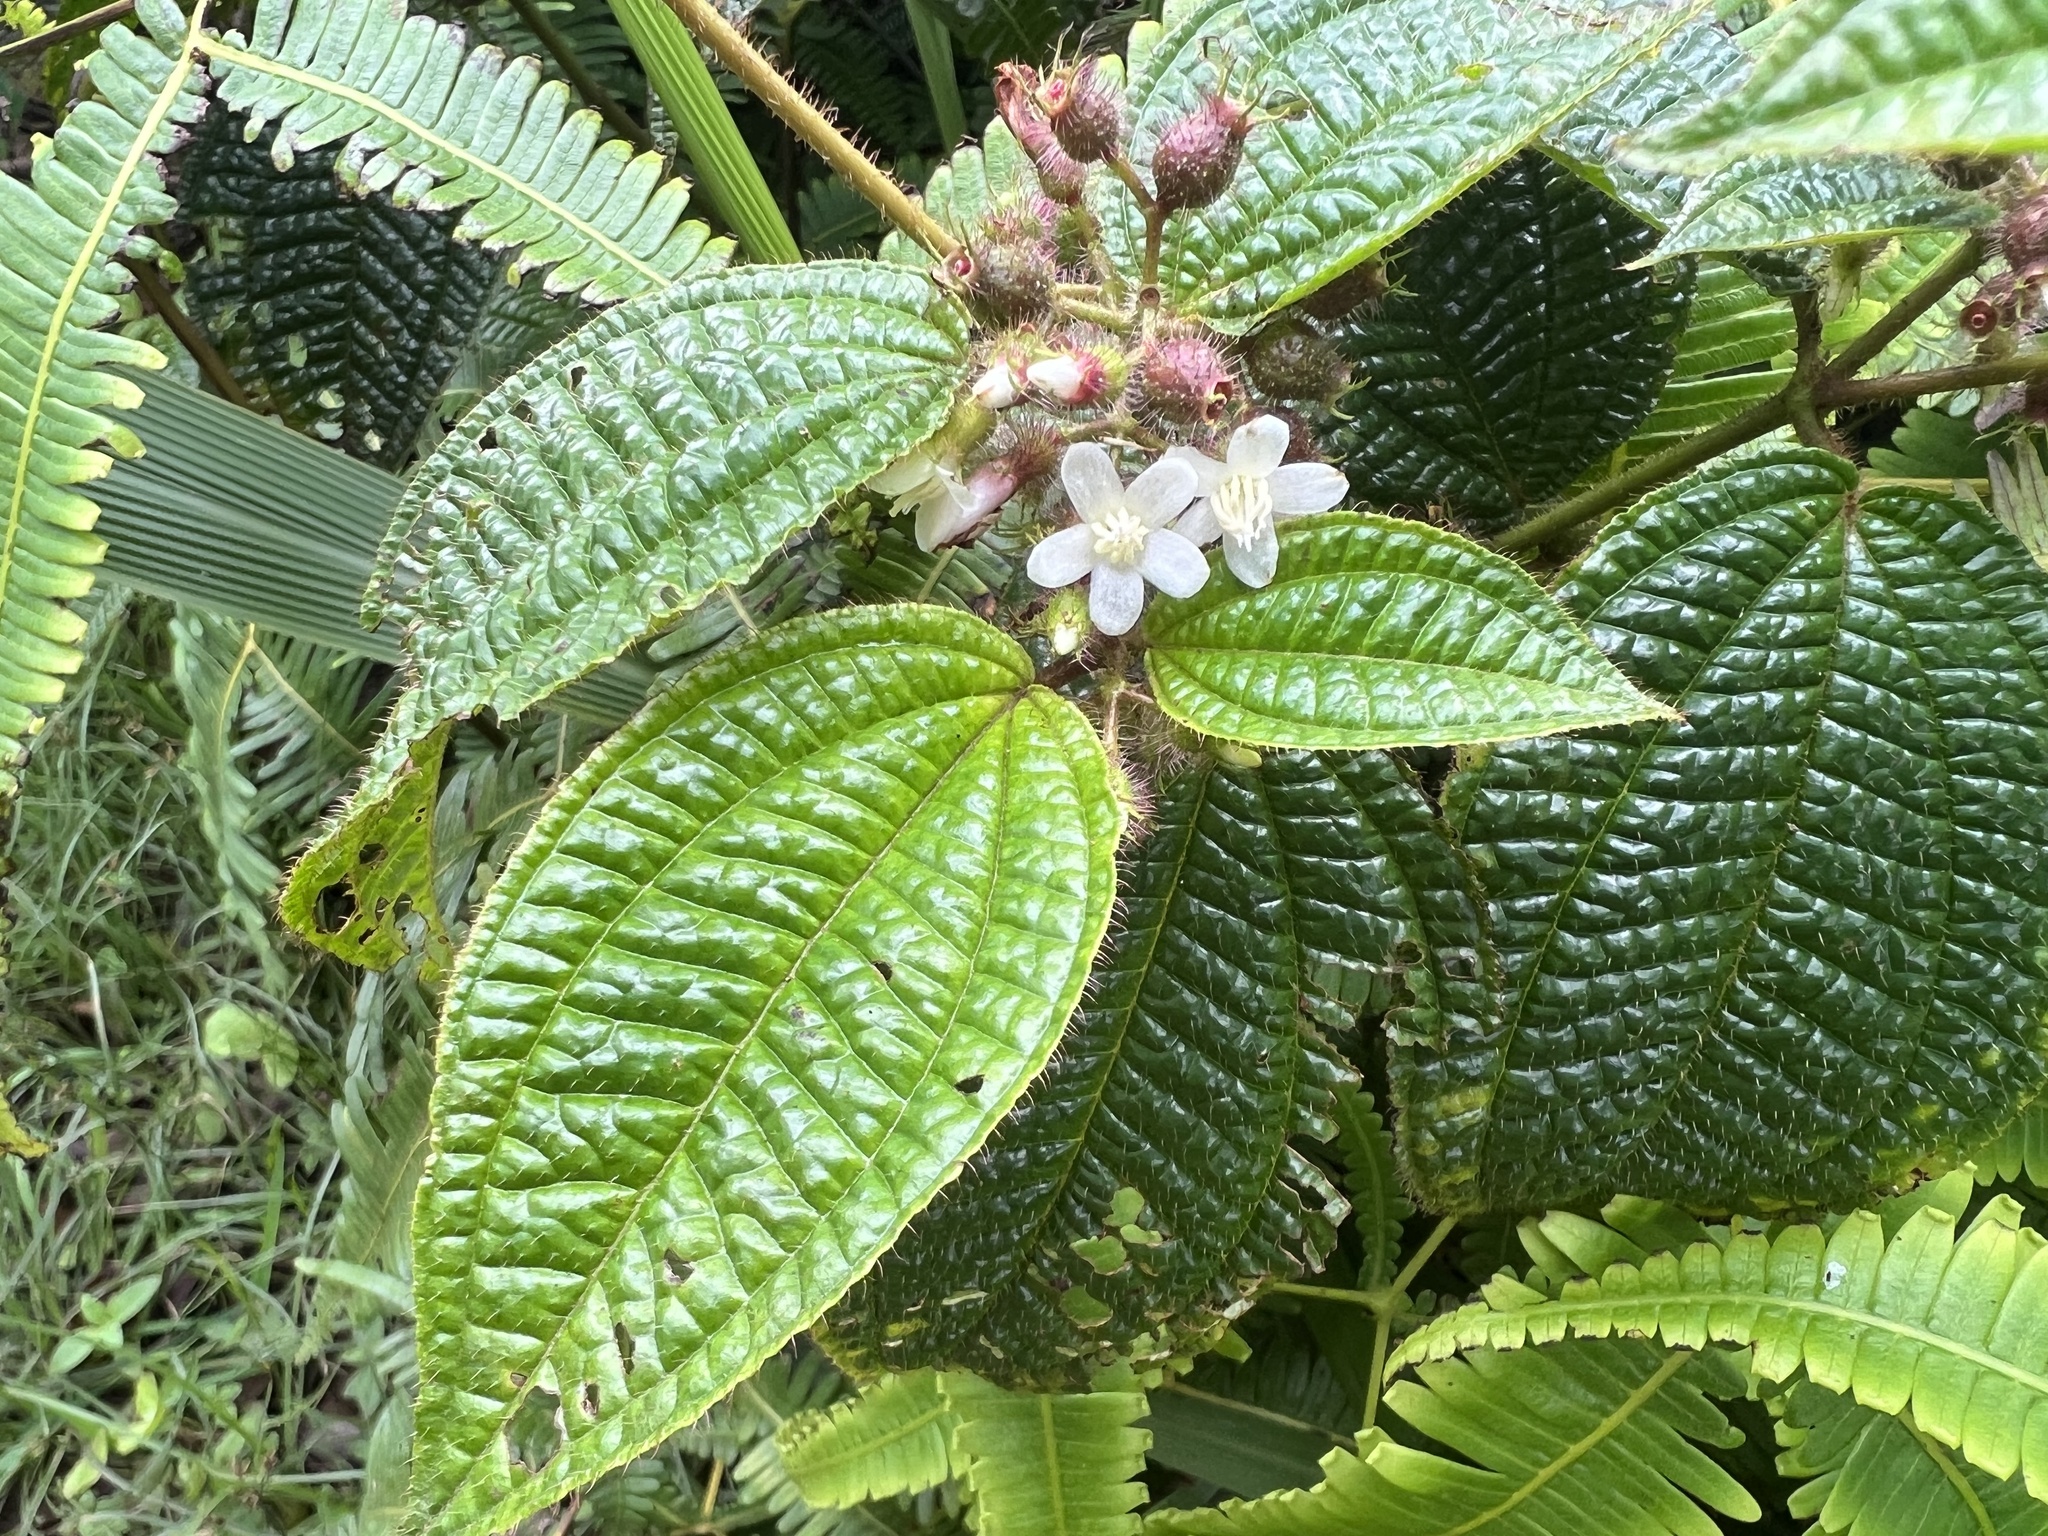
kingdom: Plantae
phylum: Tracheophyta
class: Magnoliopsida
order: Myrtales
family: Melastomataceae
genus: Miconia
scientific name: Miconia crenata
